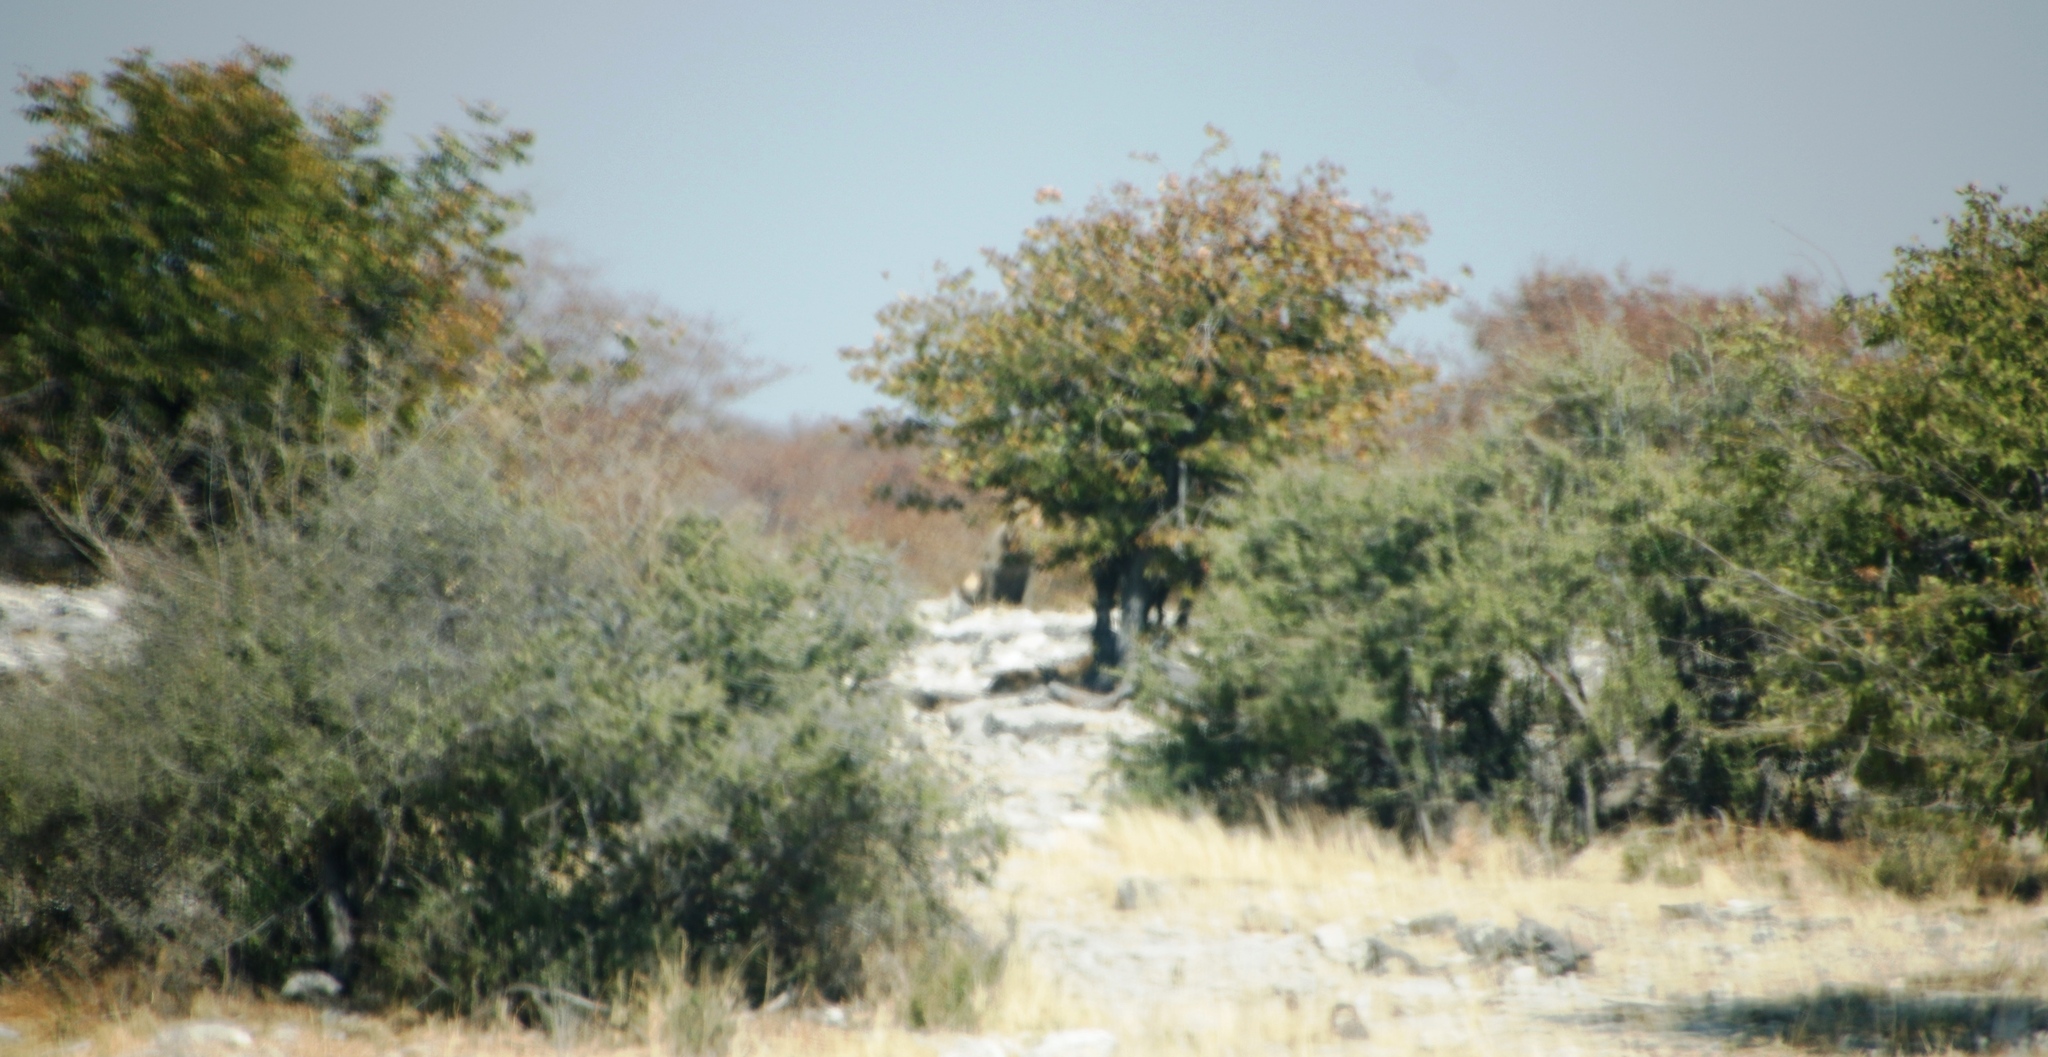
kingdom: Animalia
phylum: Chordata
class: Mammalia
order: Carnivora
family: Felidae
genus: Panthera
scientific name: Panthera leo
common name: Lion
